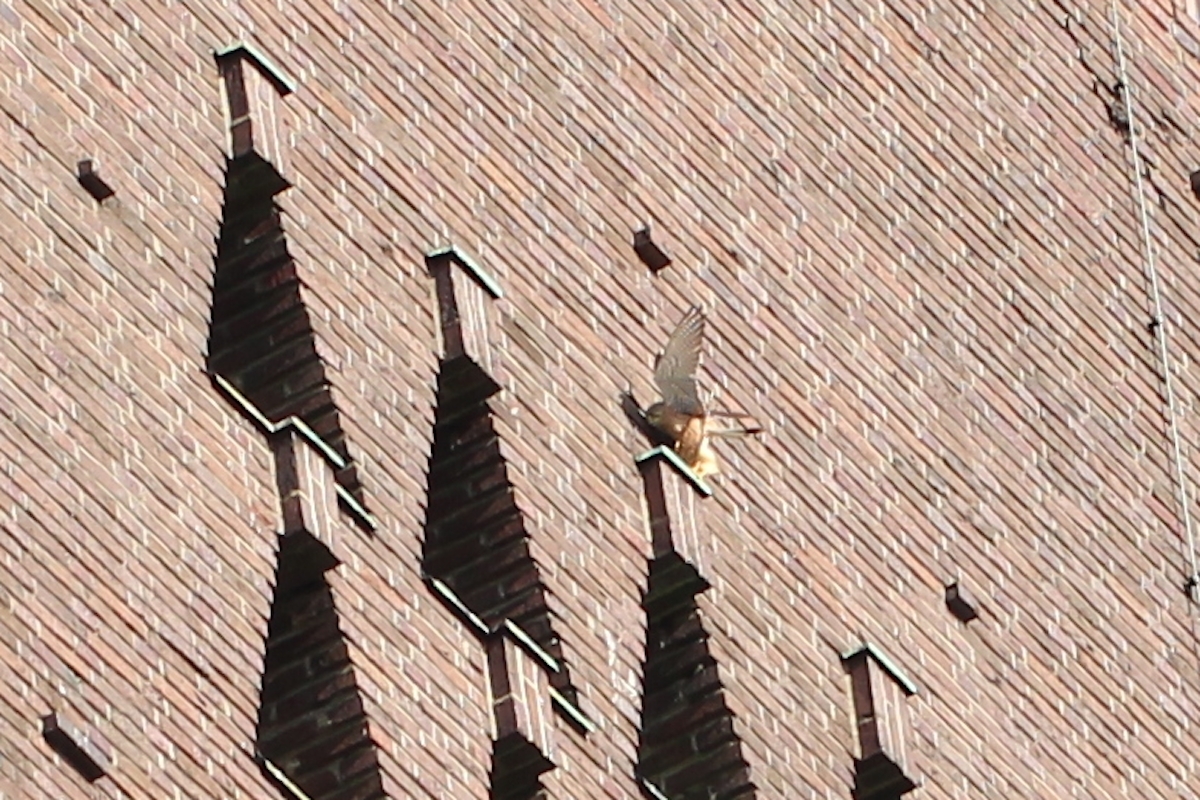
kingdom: Animalia
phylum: Chordata
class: Aves
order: Falconiformes
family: Falconidae
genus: Falco
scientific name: Falco tinnunculus
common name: Common kestrel
